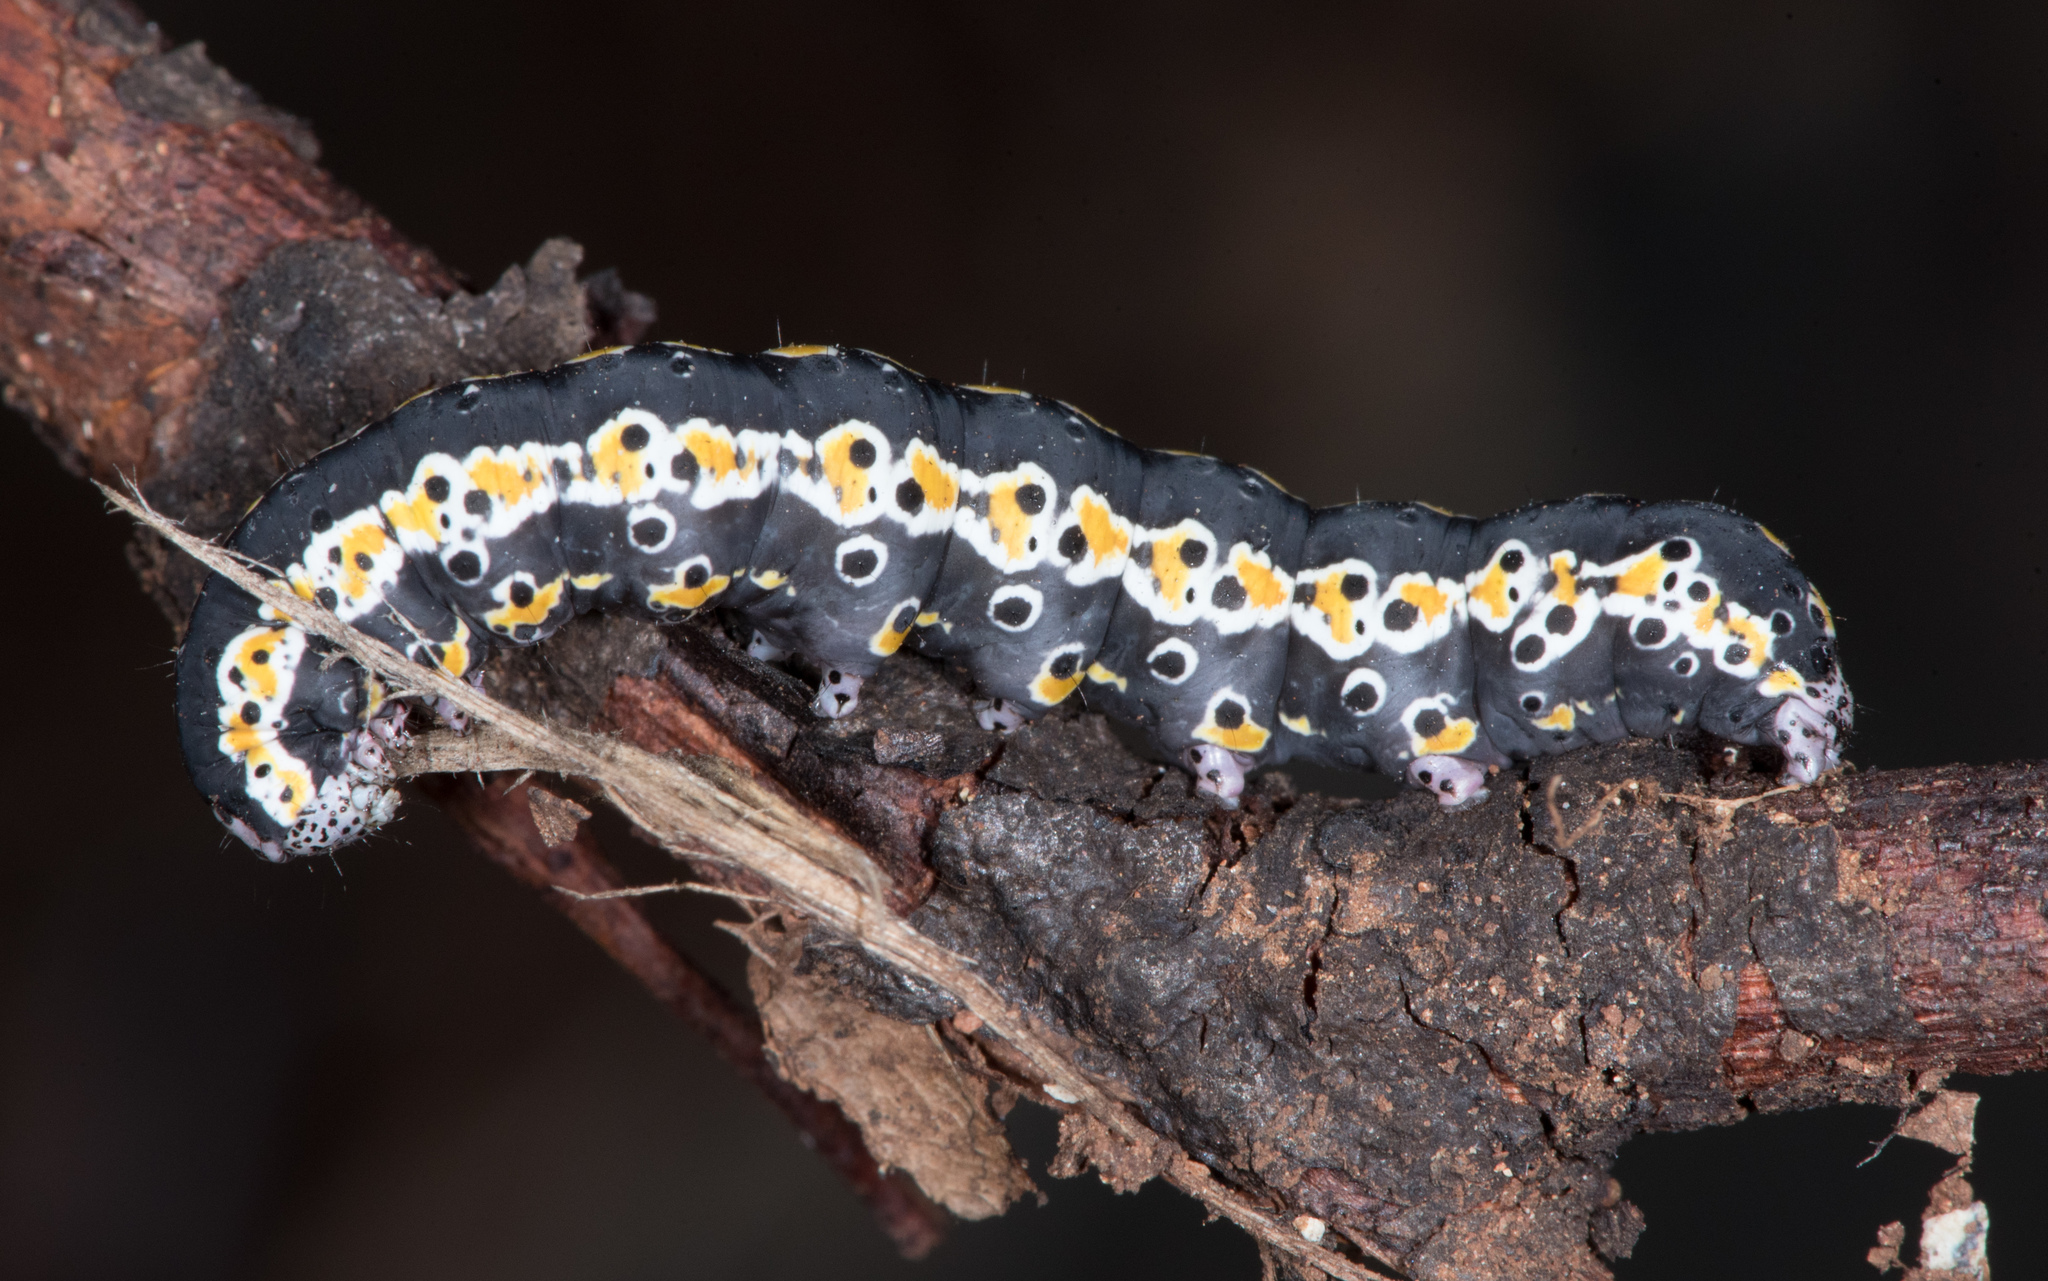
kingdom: Animalia
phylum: Arthropoda
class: Insecta
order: Lepidoptera
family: Noctuidae
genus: Sympistis
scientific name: Sympistis perscripta
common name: Scribbled sallow
